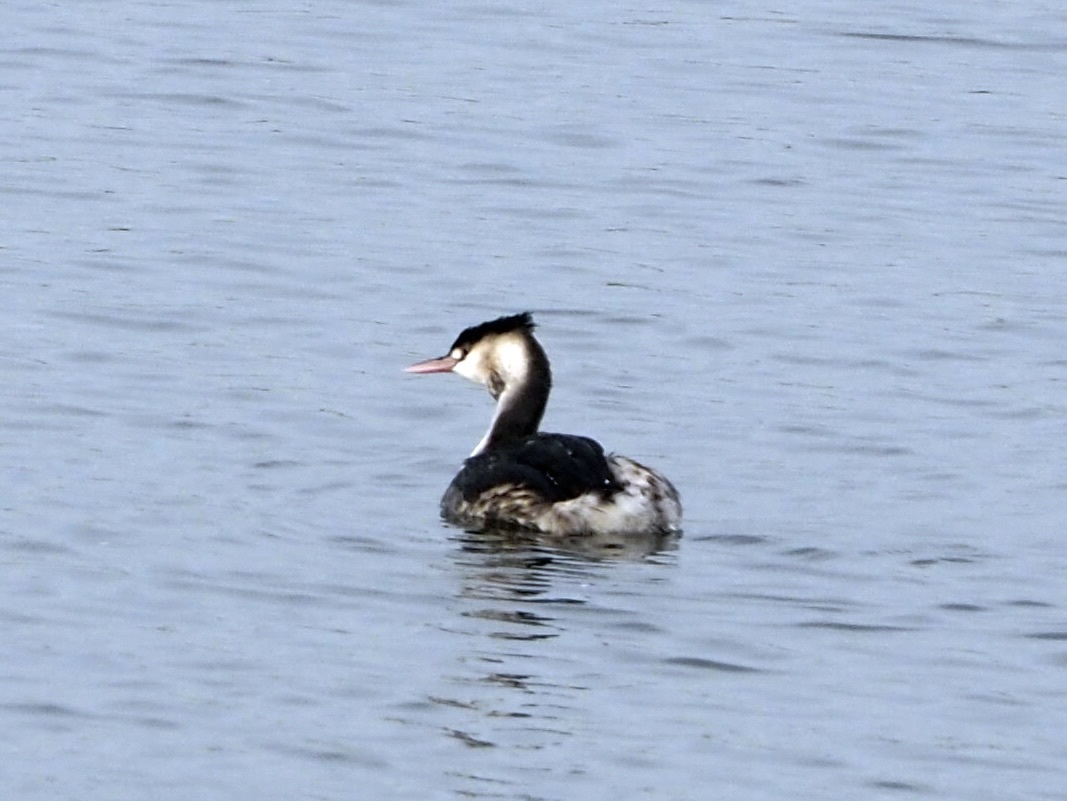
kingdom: Animalia
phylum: Chordata
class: Aves
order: Podicipediformes
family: Podicipedidae
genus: Podiceps
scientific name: Podiceps cristatus
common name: Great crested grebe
